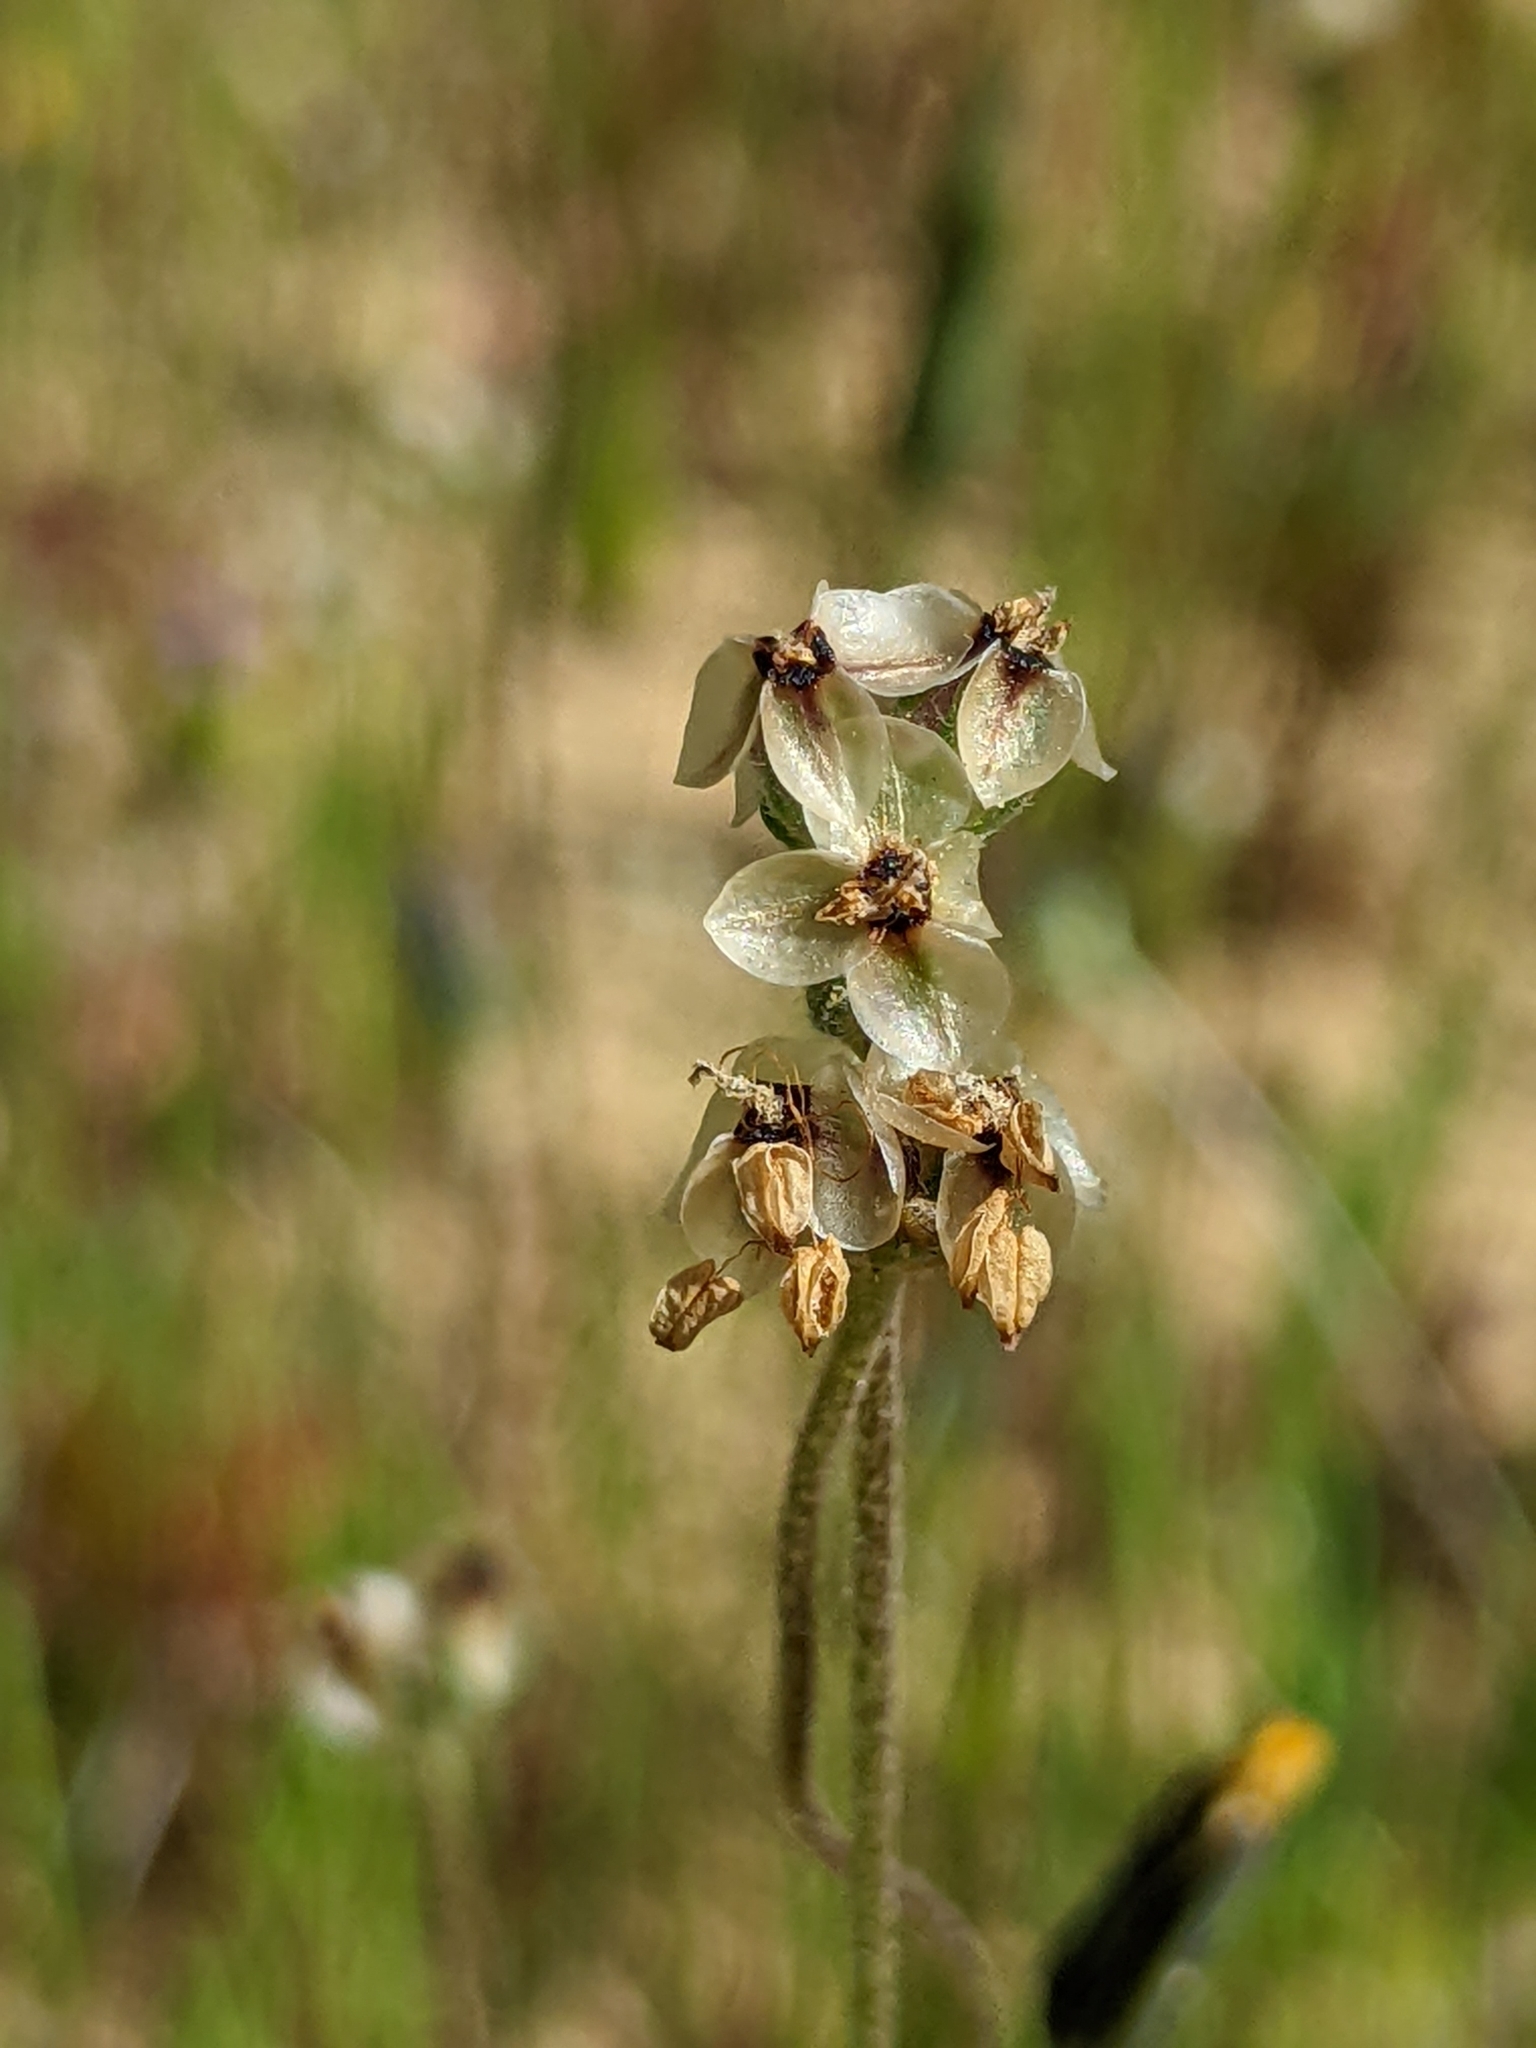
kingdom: Plantae
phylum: Tracheophyta
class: Magnoliopsida
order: Lamiales
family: Plantaginaceae
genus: Plantago
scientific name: Plantago erecta
